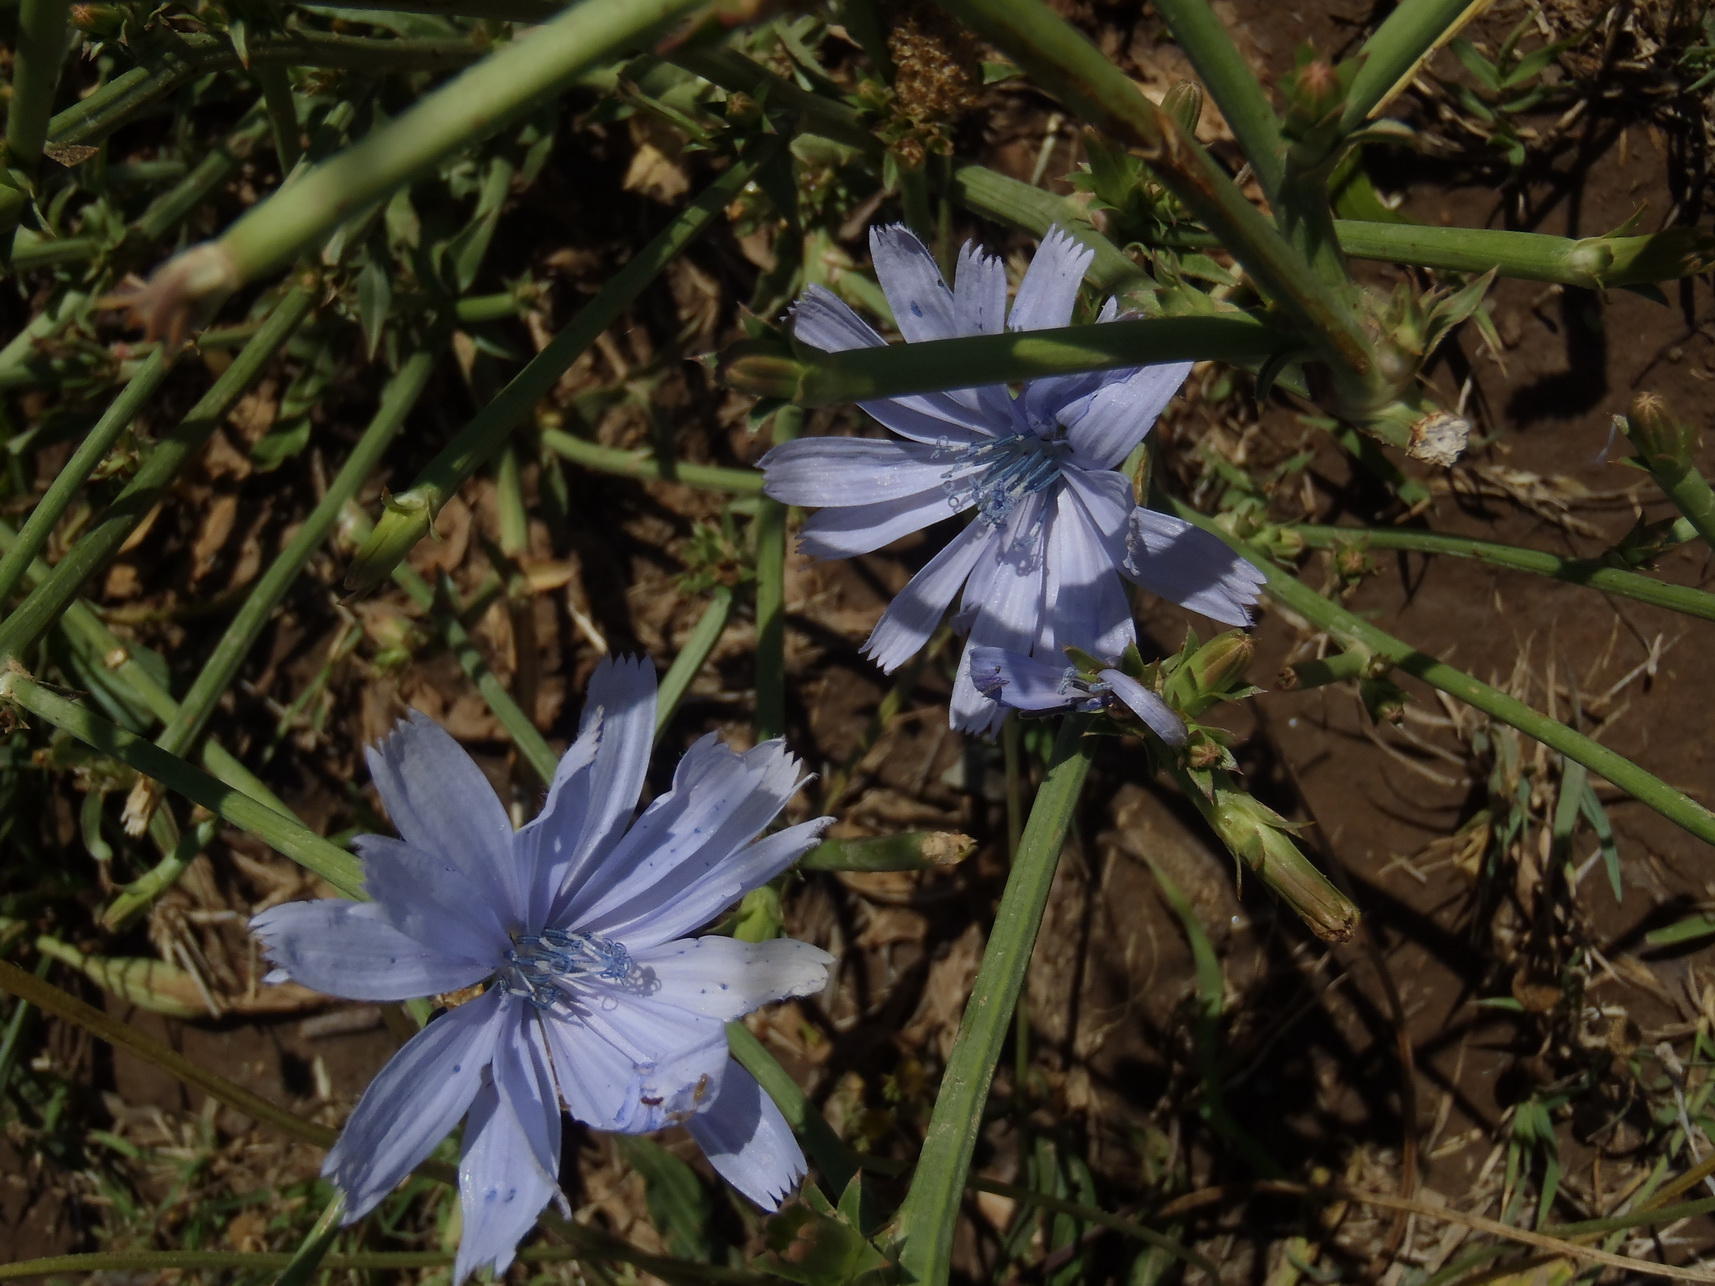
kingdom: Plantae
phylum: Tracheophyta
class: Magnoliopsida
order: Asterales
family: Asteraceae
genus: Cichorium
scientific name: Cichorium intybus
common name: Chicory
